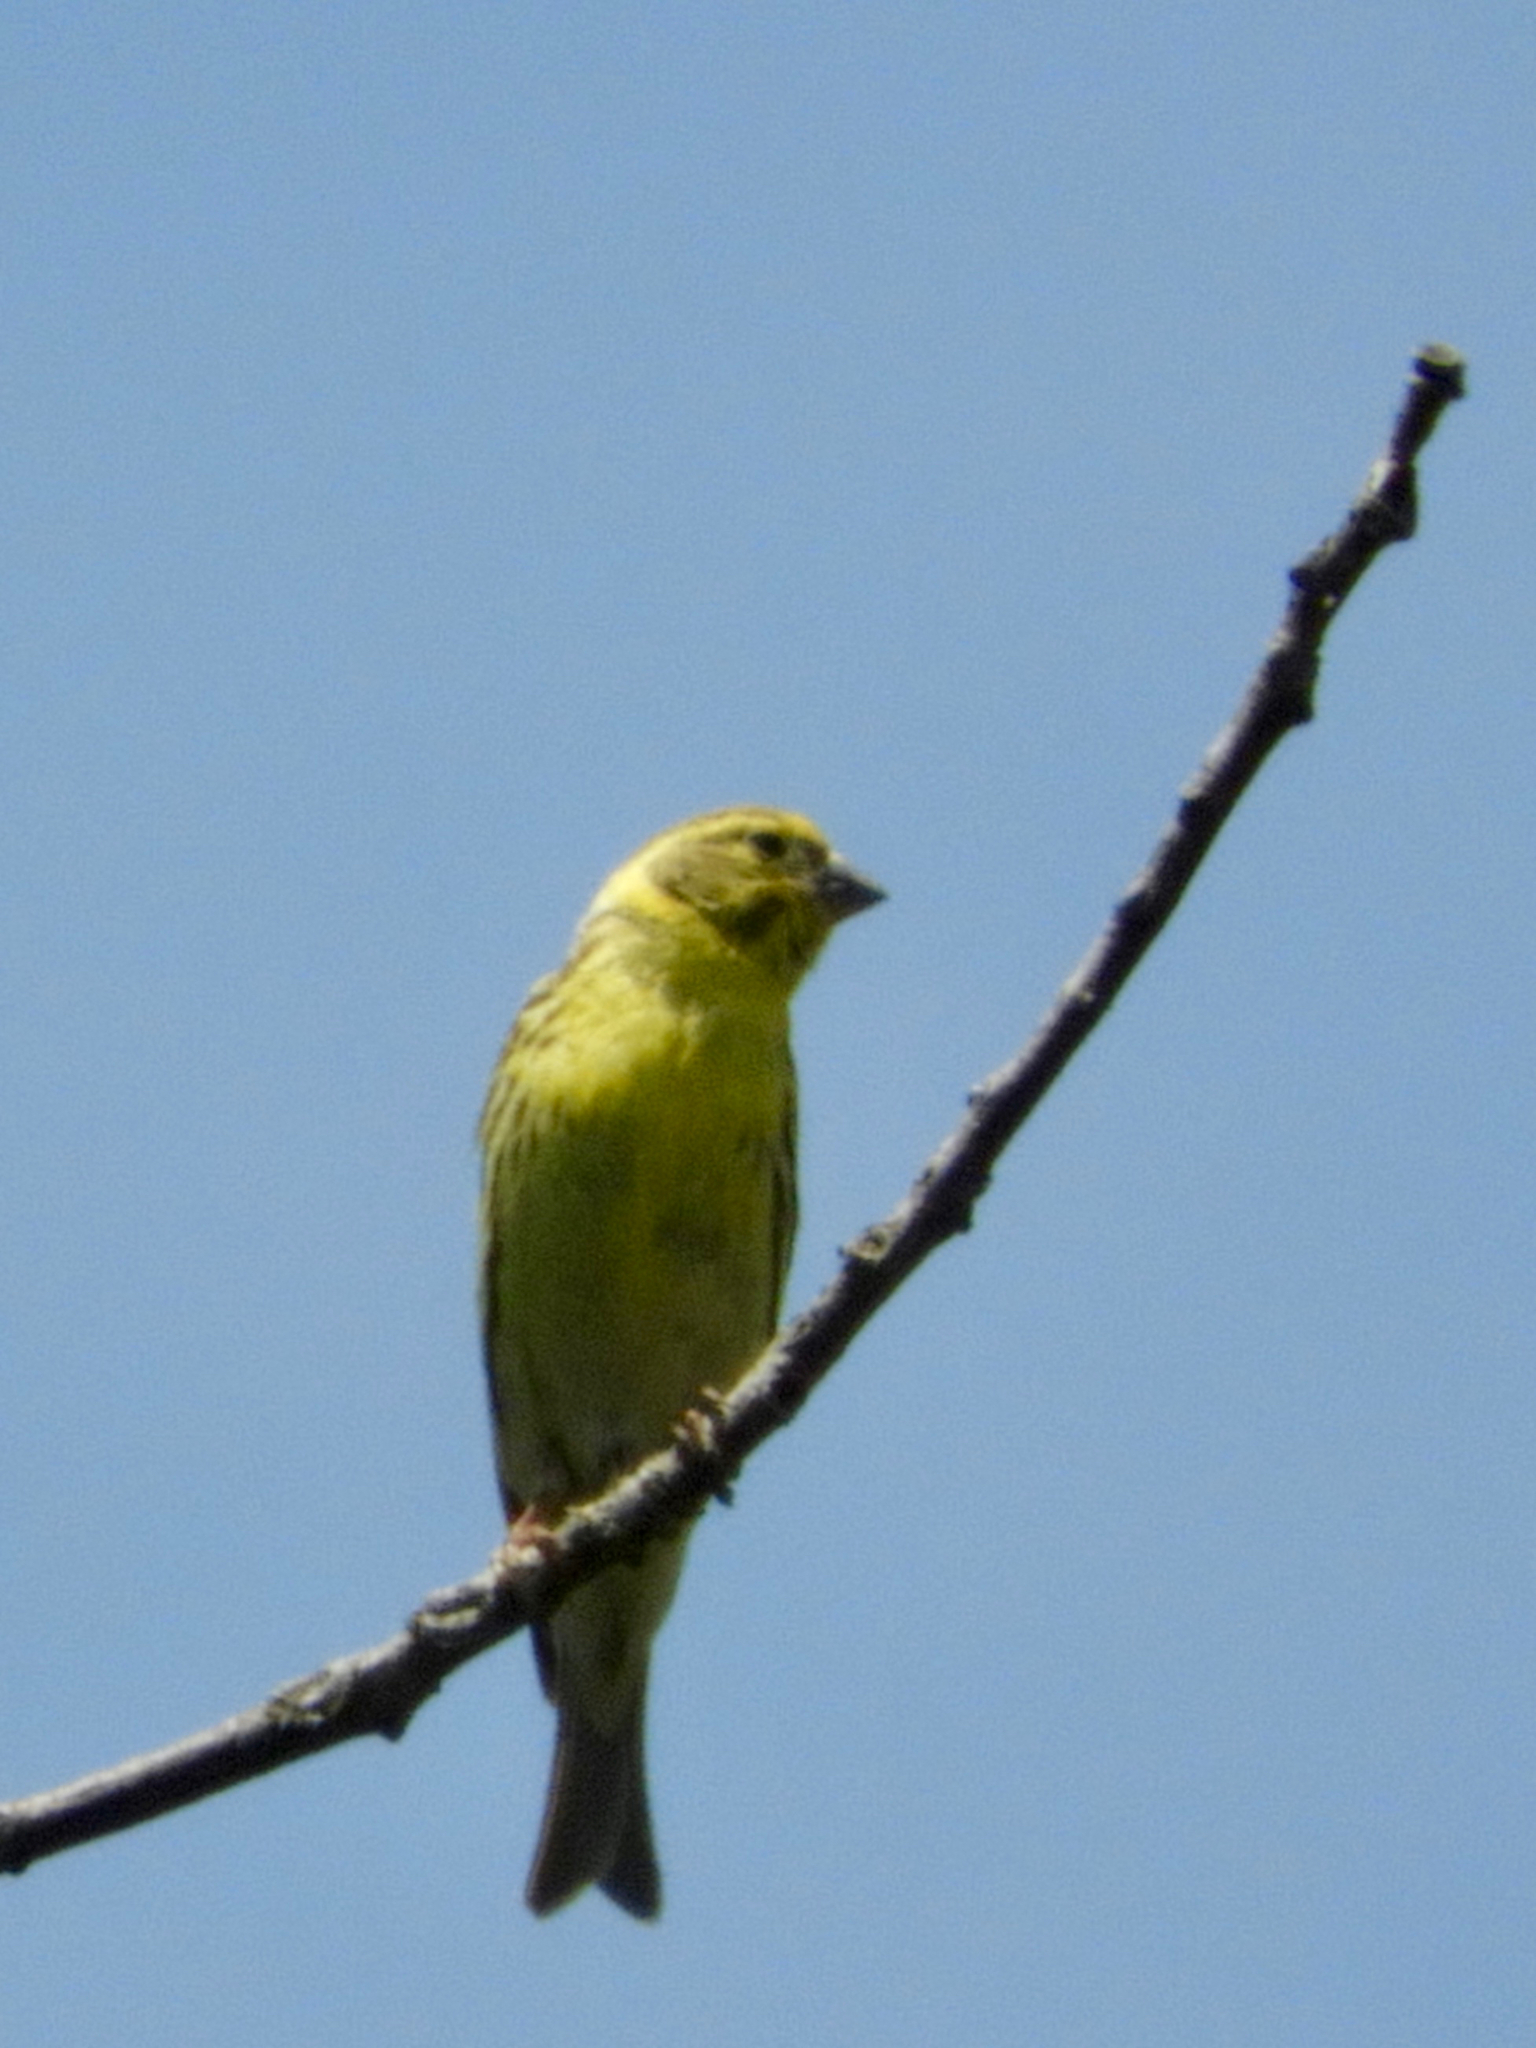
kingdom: Animalia
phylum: Chordata
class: Aves
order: Passeriformes
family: Fringillidae
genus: Serinus
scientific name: Serinus serinus
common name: European serin
